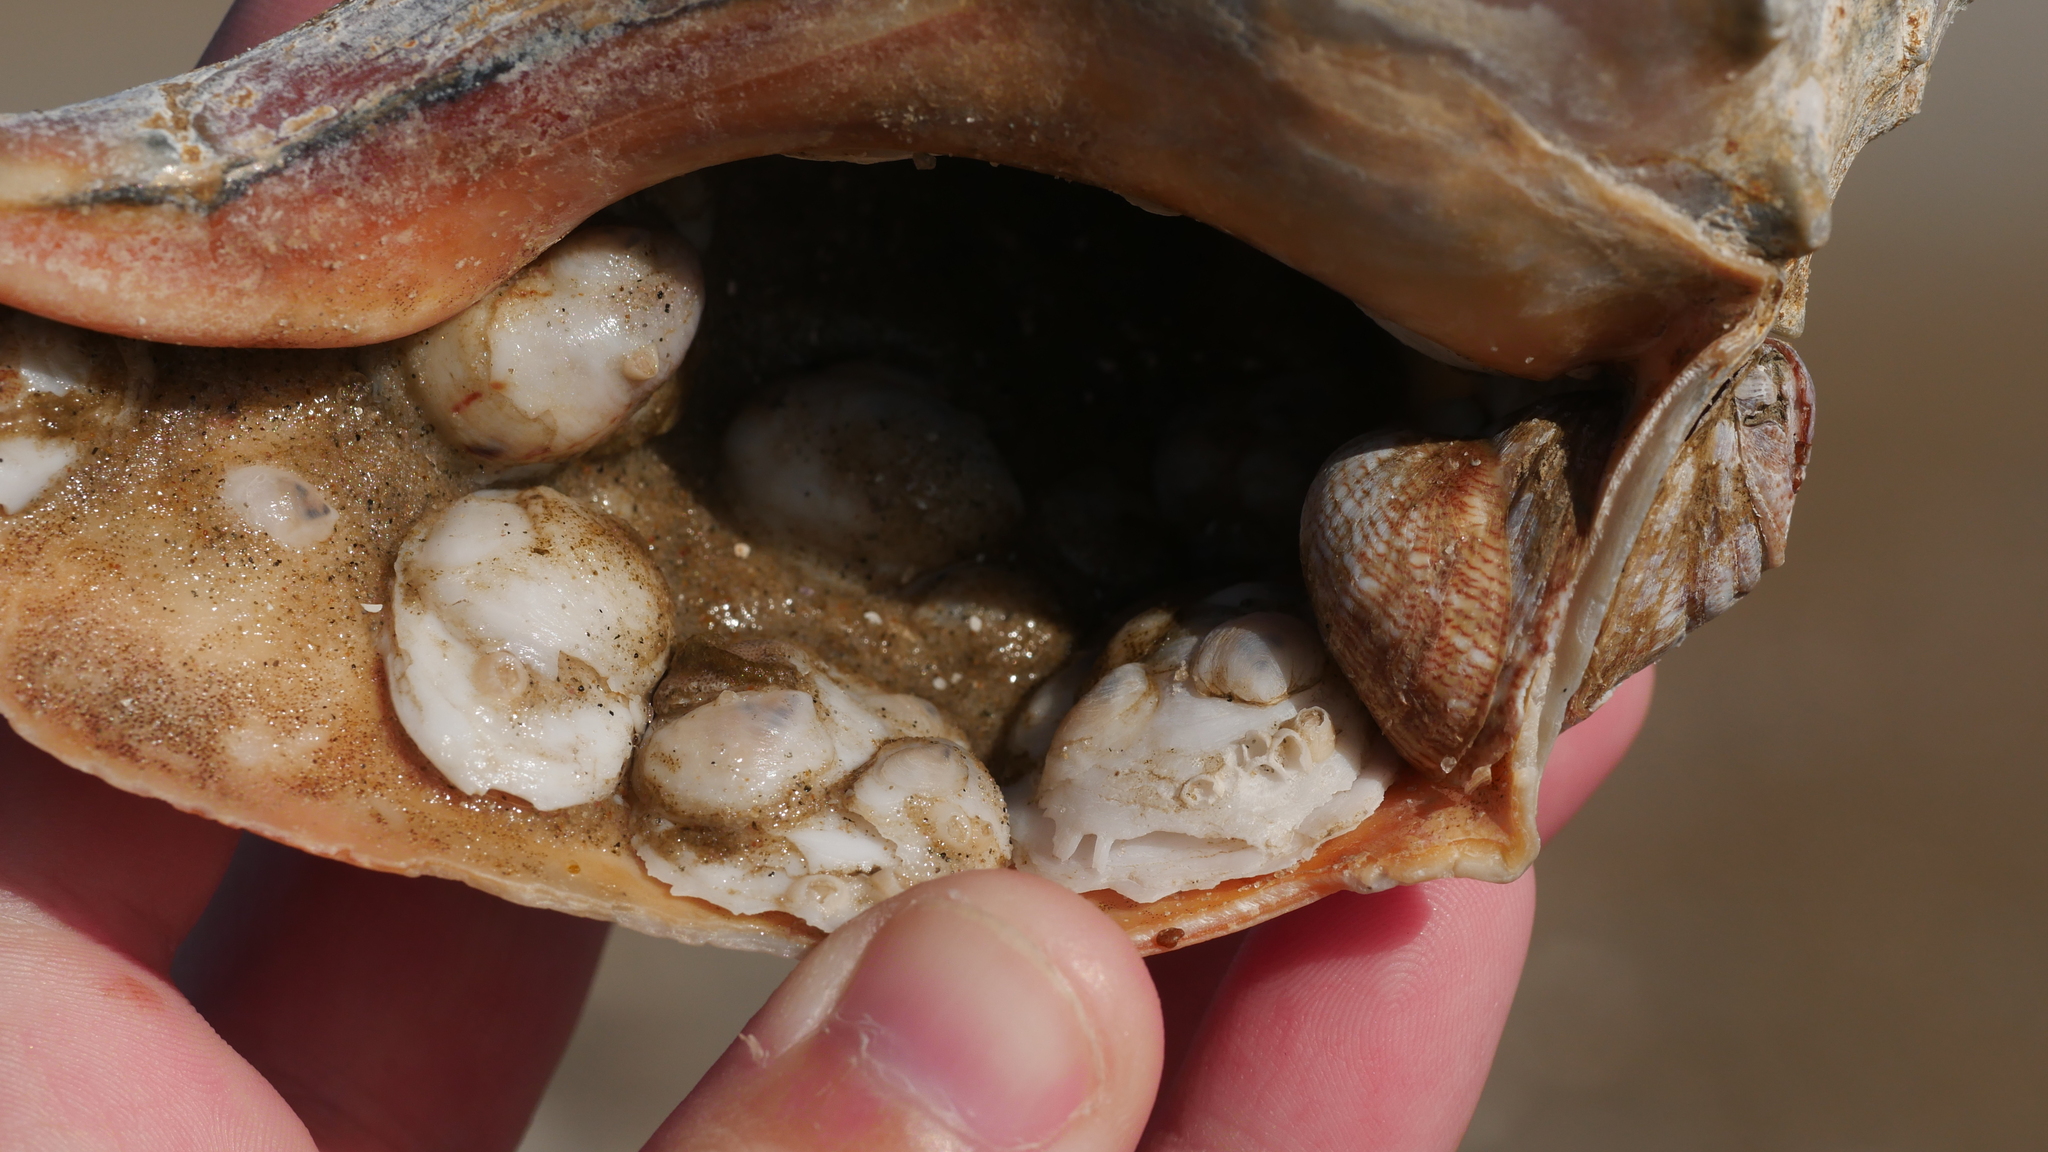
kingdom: Animalia
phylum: Mollusca
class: Gastropoda
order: Littorinimorpha
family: Calyptraeidae
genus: Crepidula
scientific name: Crepidula fornicata
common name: Slipper limpet
